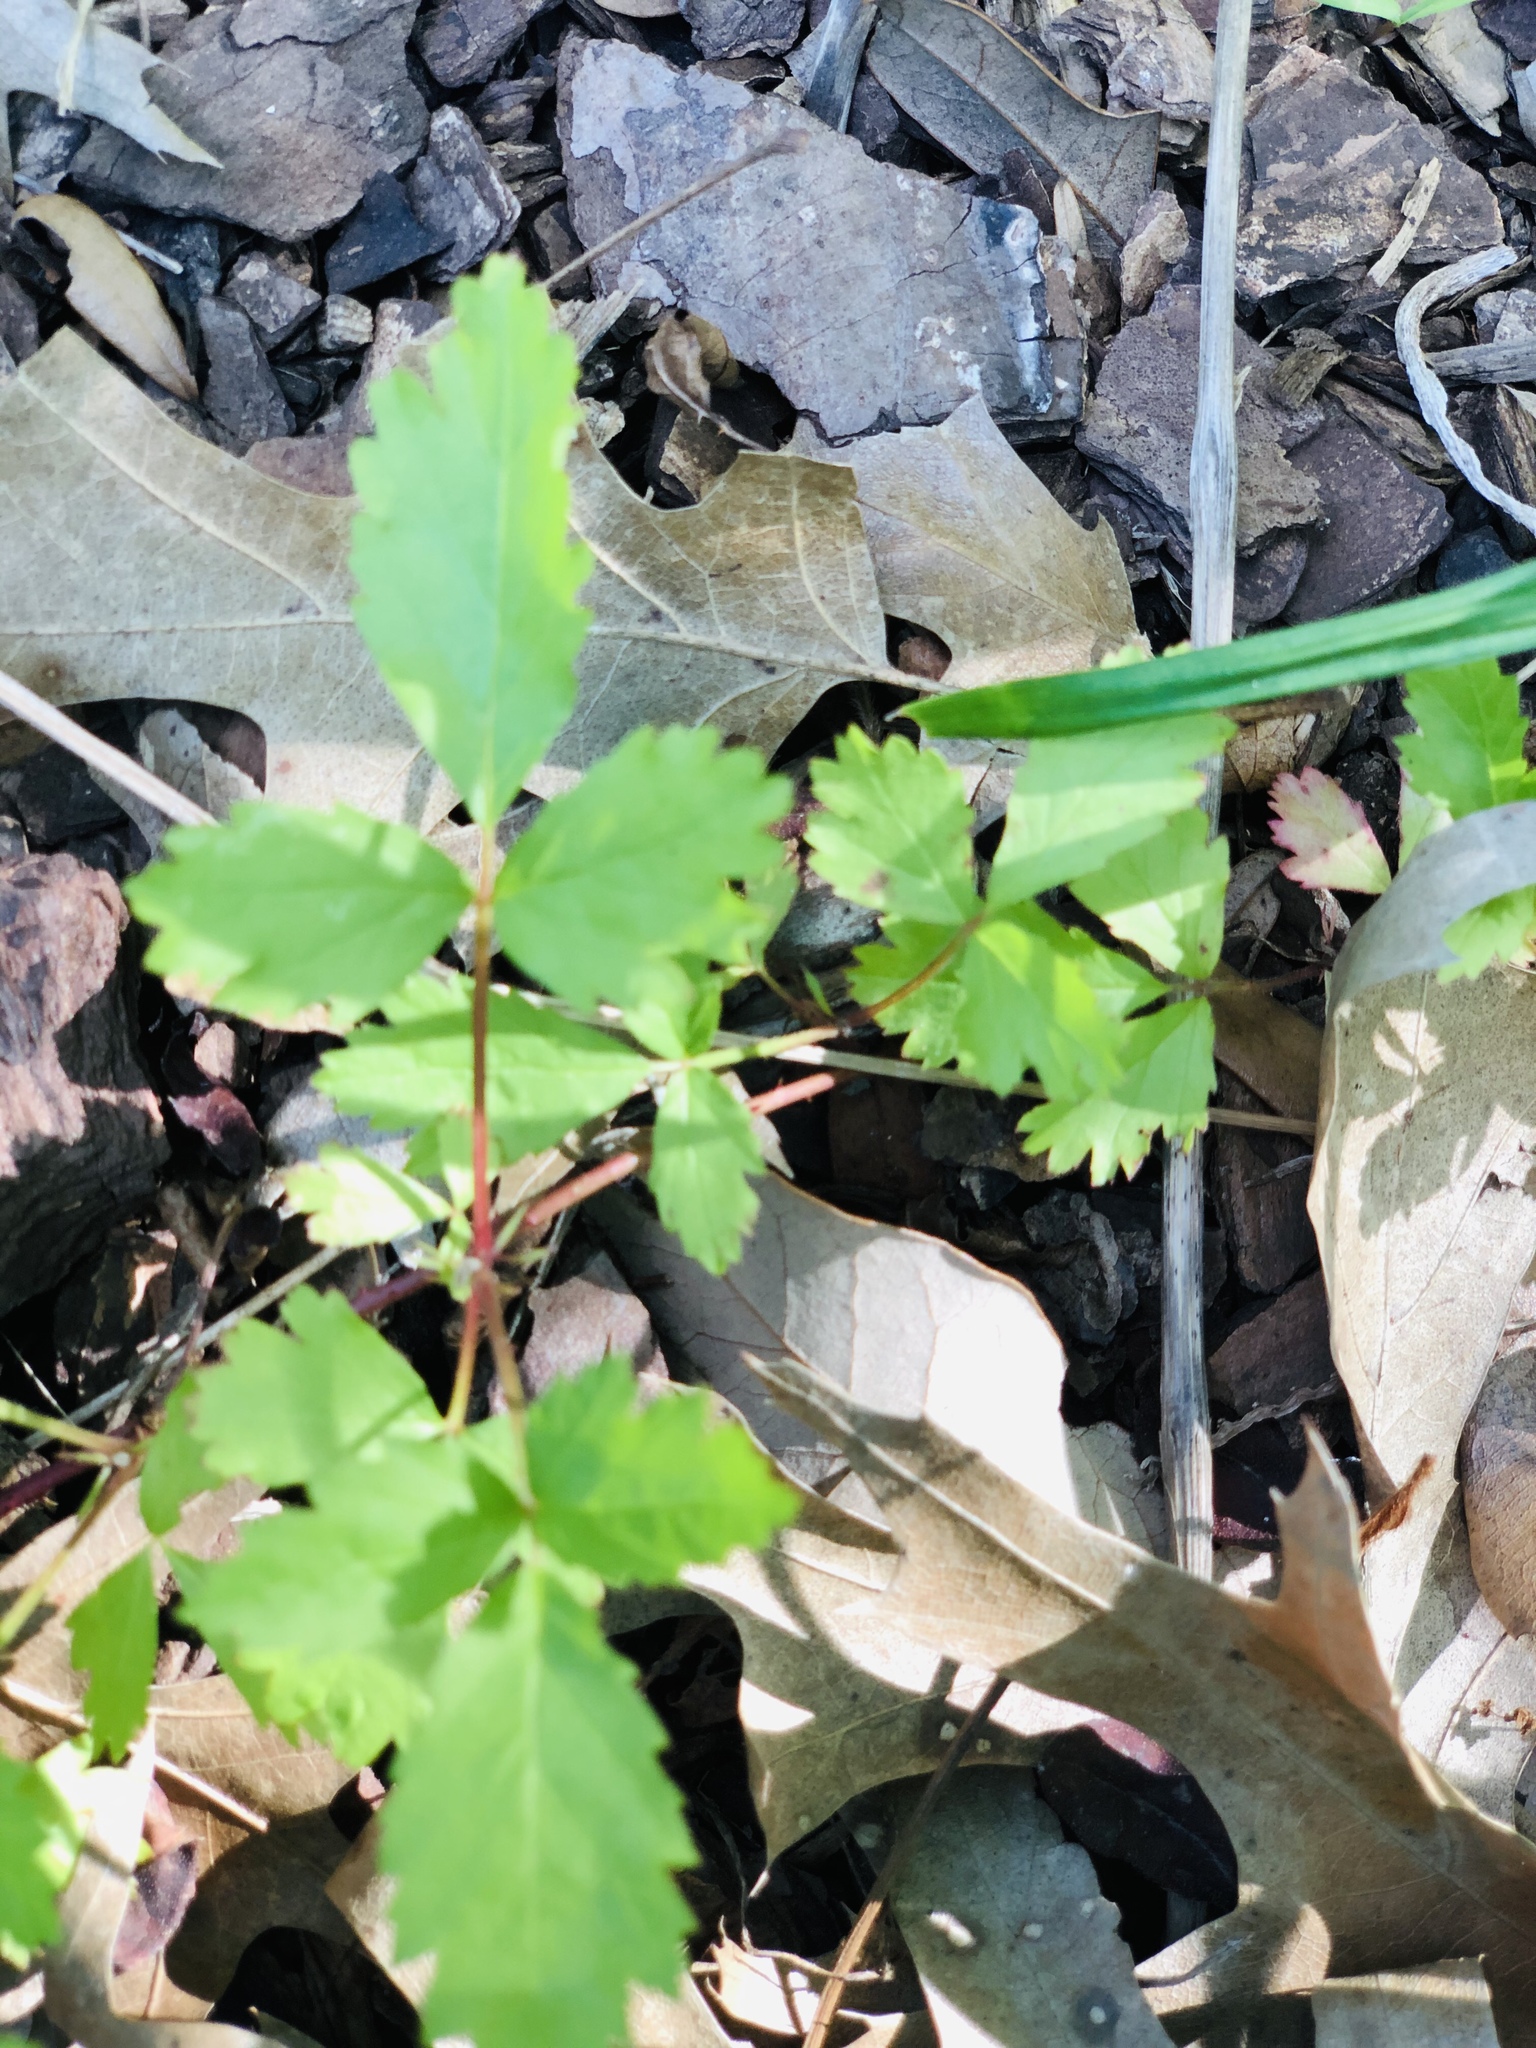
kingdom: Plantae
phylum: Tracheophyta
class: Magnoliopsida
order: Rosales
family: Rosaceae
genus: Rubus
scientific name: Rubus trivialis
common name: Southern dewberry
